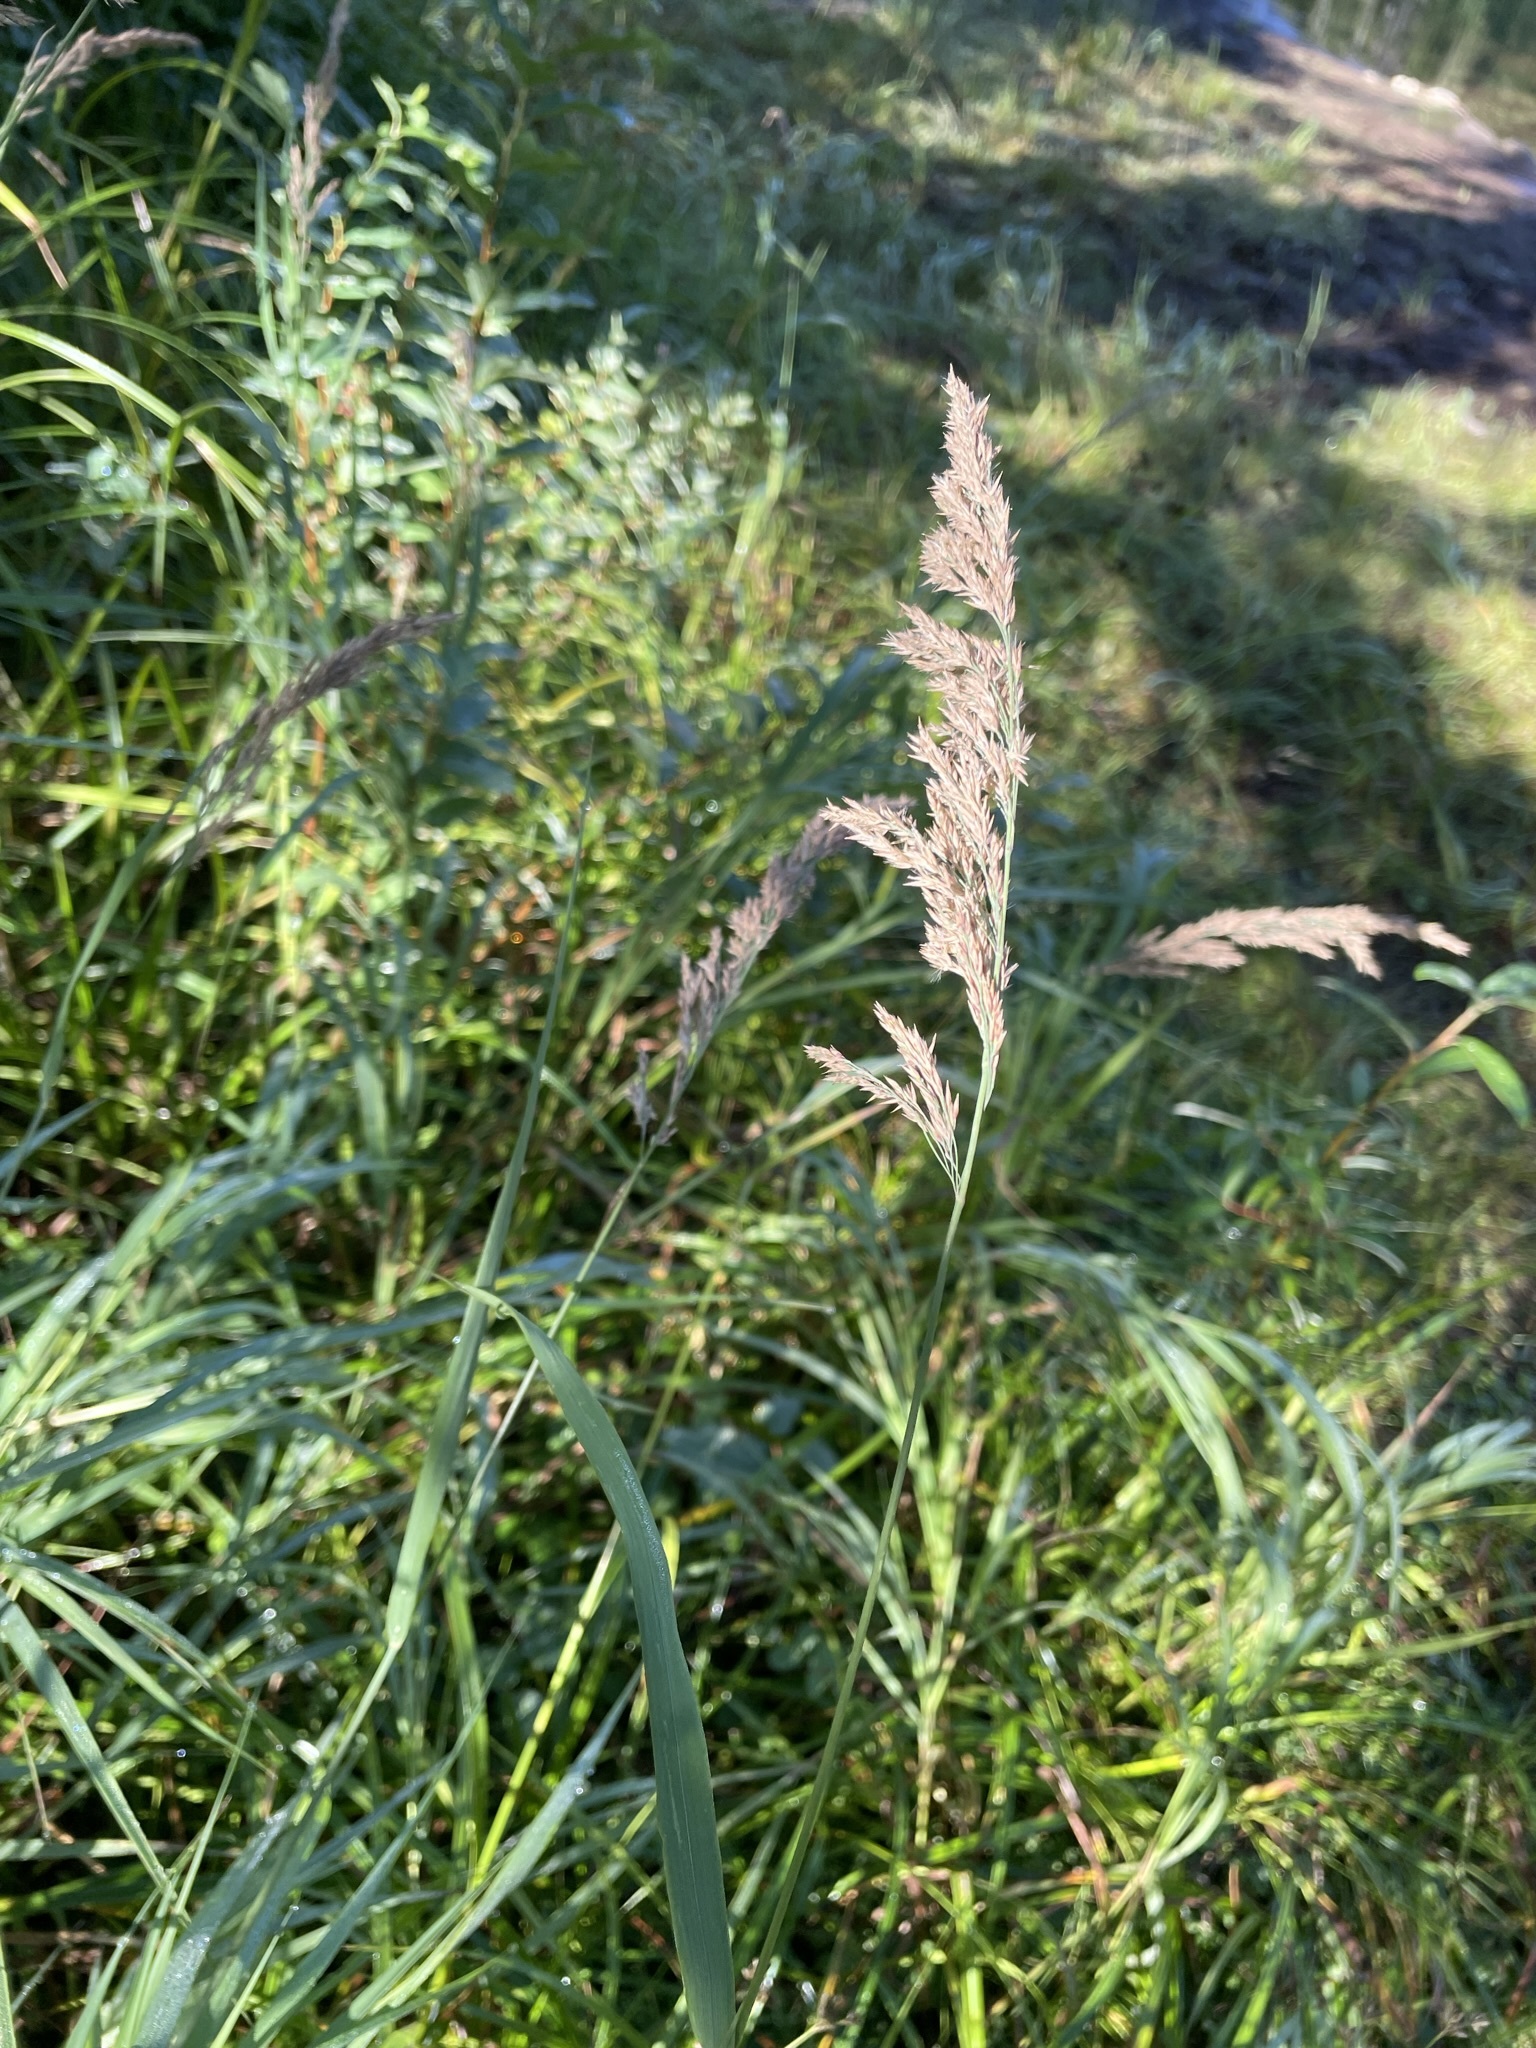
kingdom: Plantae
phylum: Tracheophyta
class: Liliopsida
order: Poales
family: Poaceae
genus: Calamagrostis
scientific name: Calamagrostis canadensis
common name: Canada bluejoint
